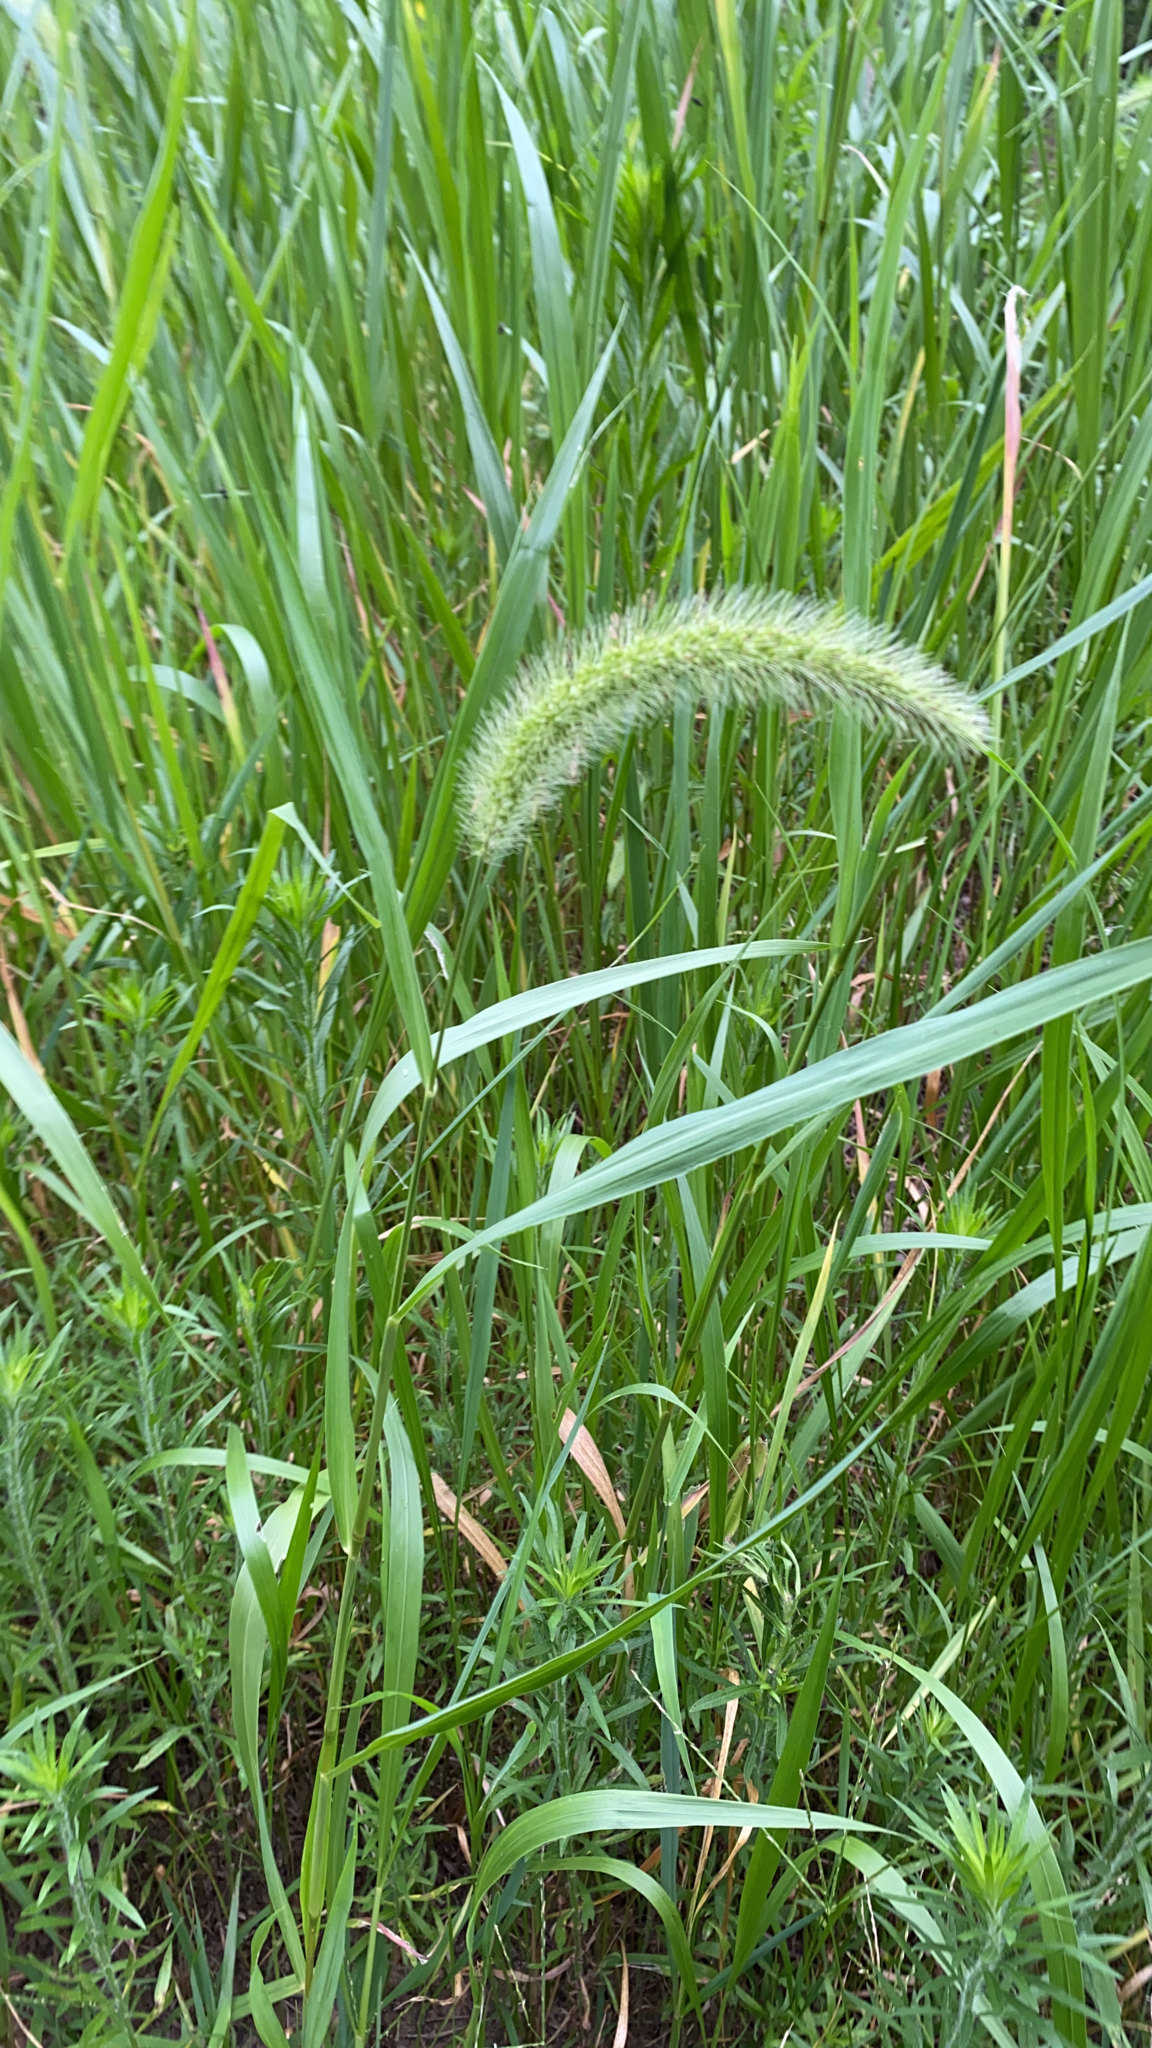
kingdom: Plantae
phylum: Tracheophyta
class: Liliopsida
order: Poales
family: Poaceae
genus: Setaria
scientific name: Setaria faberi
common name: Nodding bristle-grass
